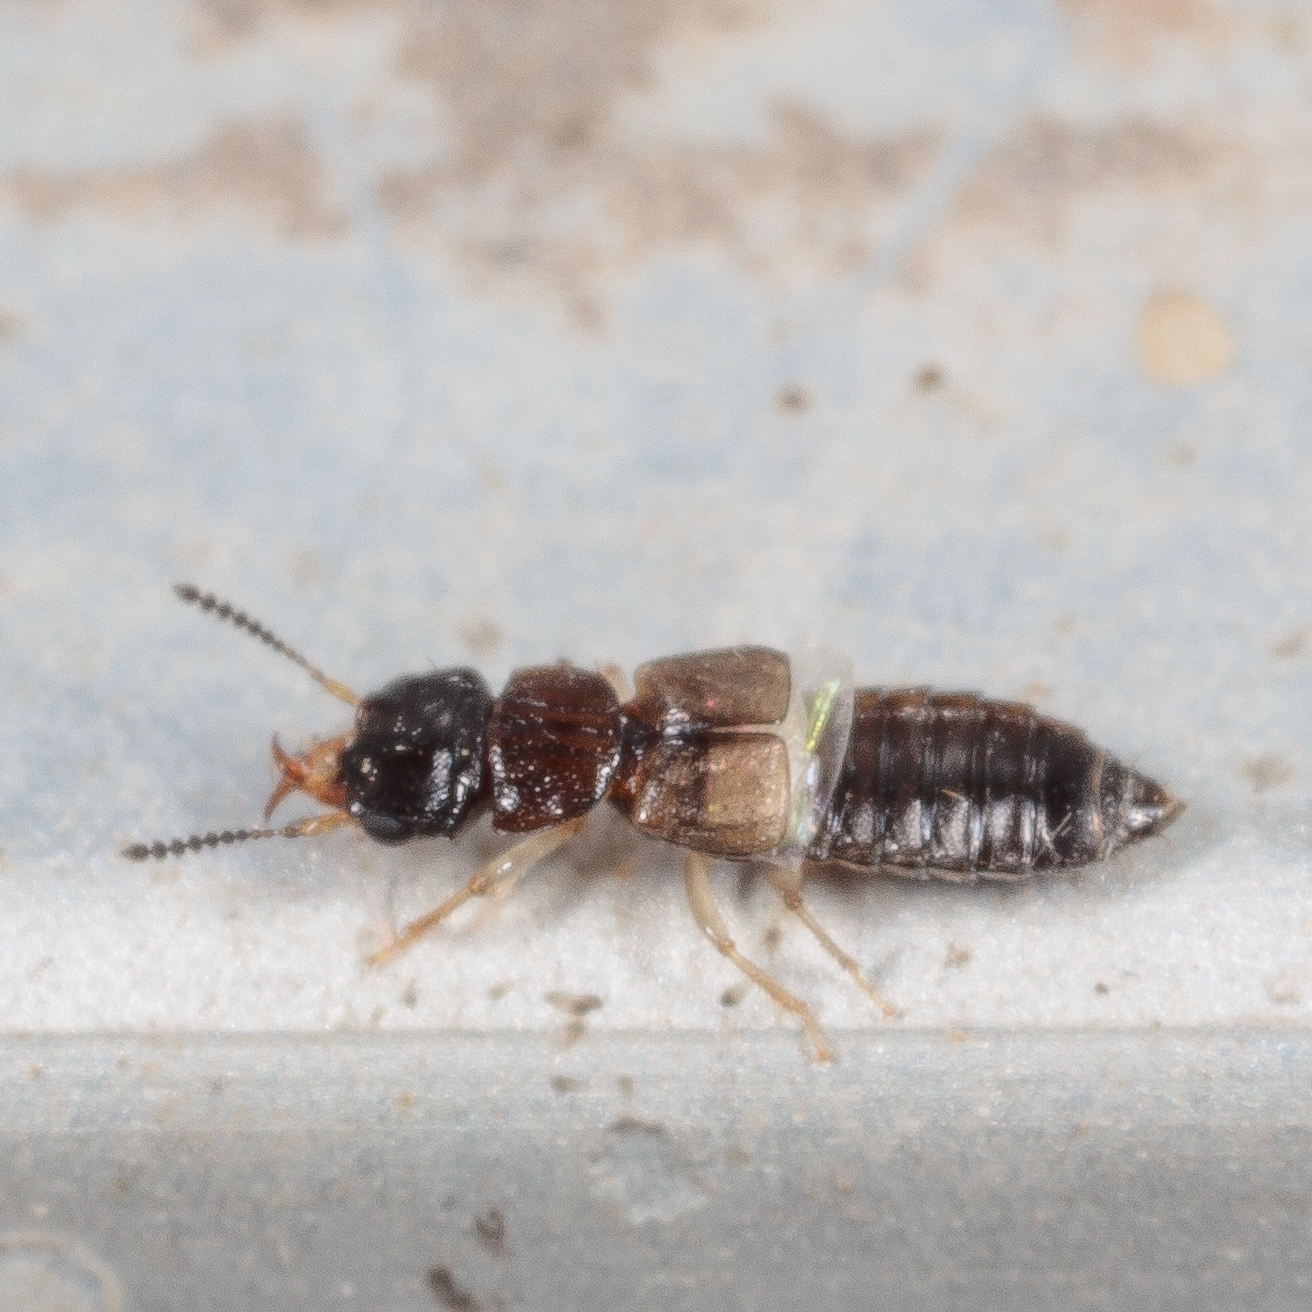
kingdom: Animalia
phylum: Arthropoda
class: Insecta
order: Coleoptera
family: Staphylinidae
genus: Anotylus
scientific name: Anotylus insignitus
